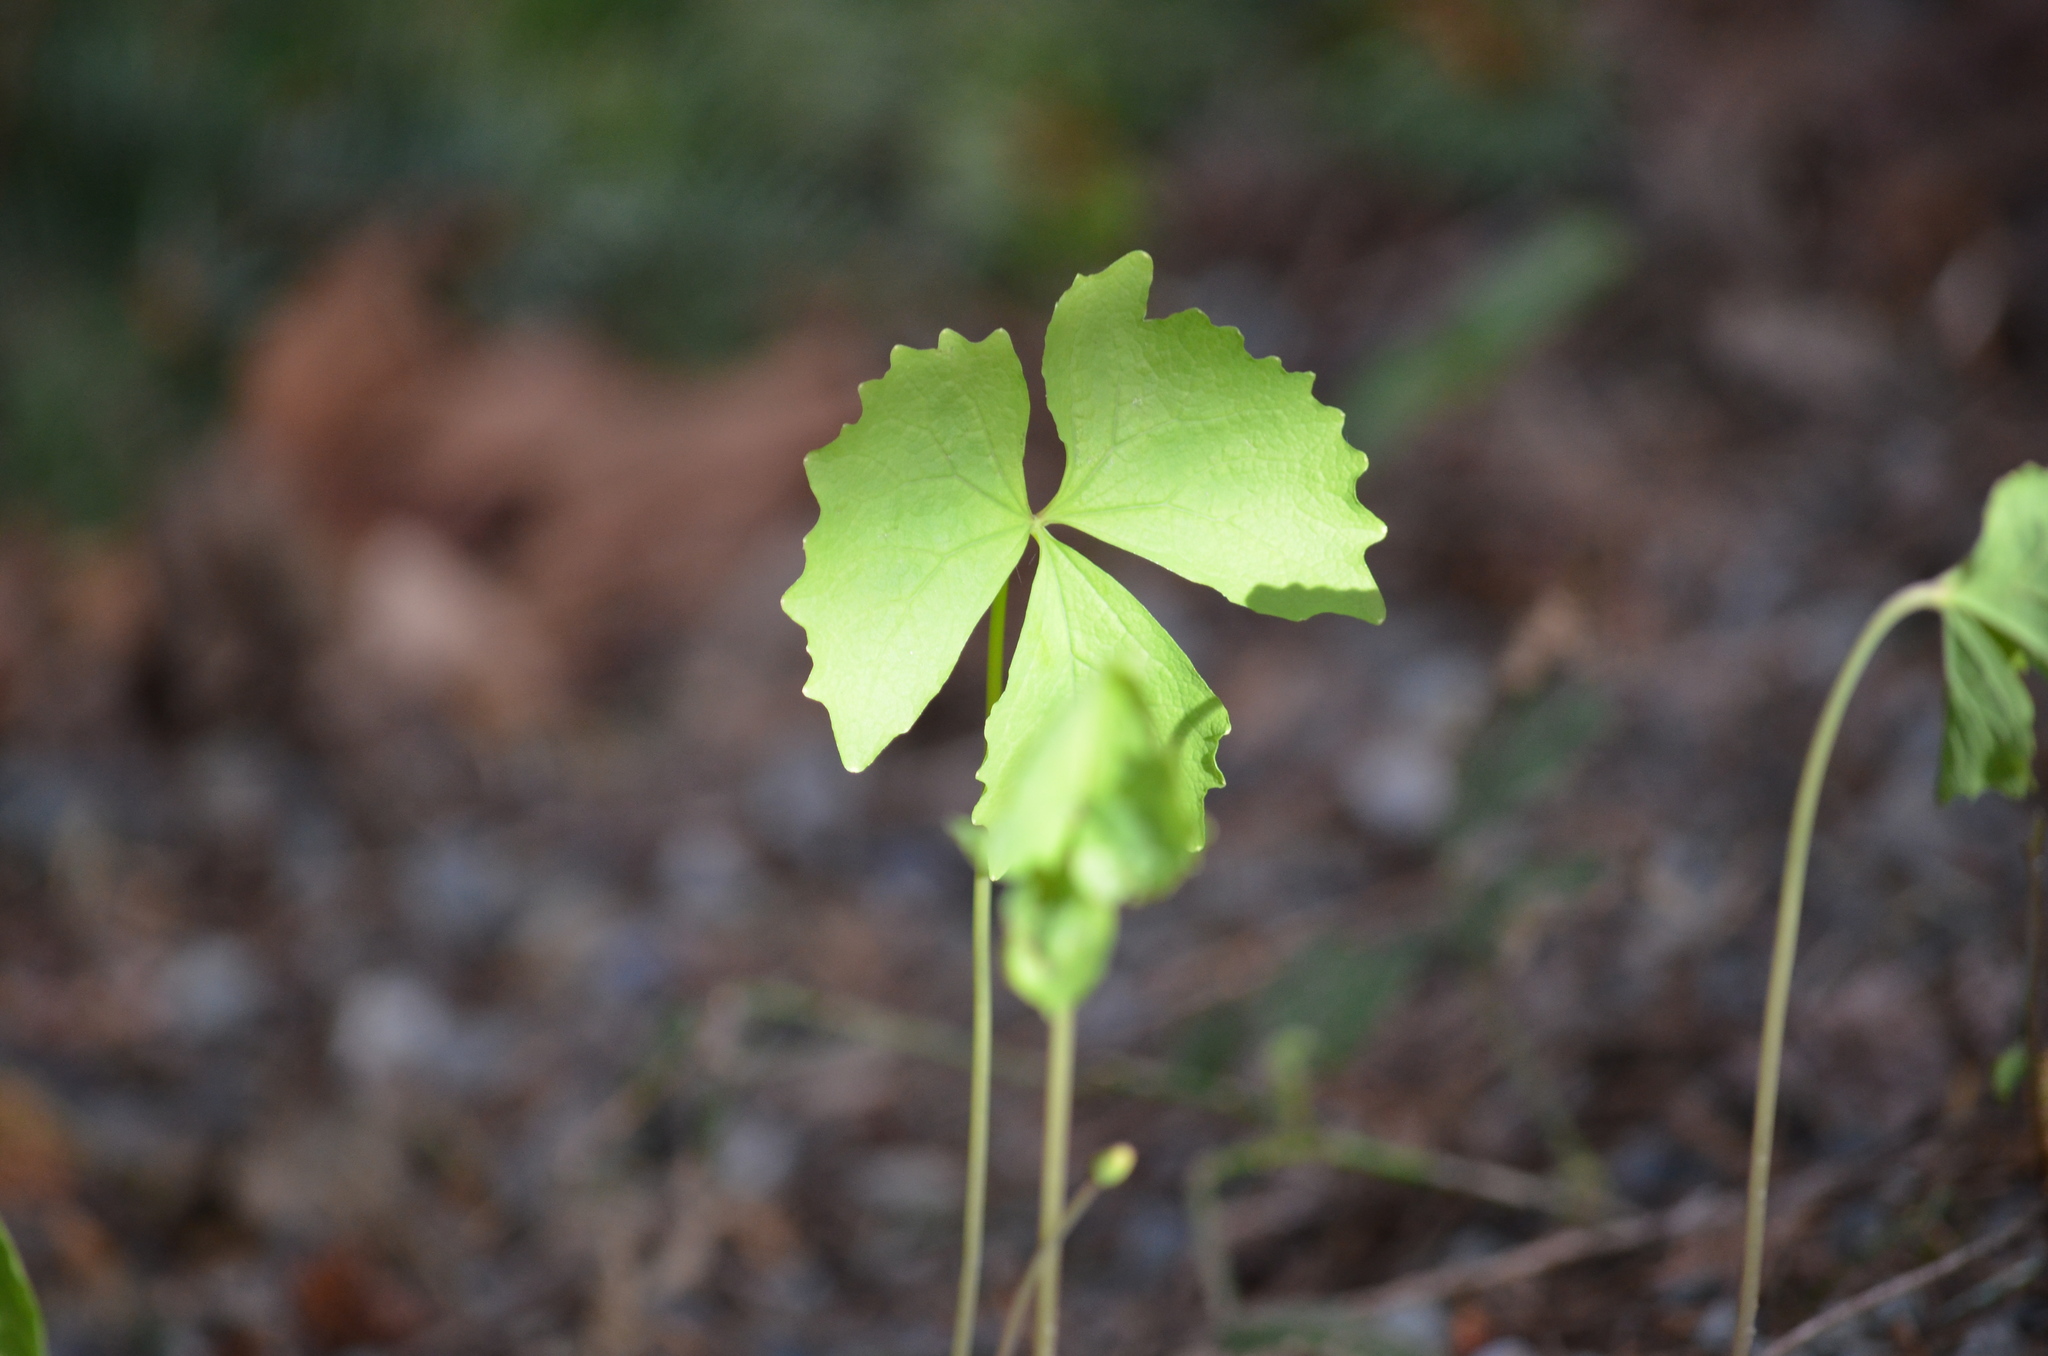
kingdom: Plantae
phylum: Tracheophyta
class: Magnoliopsida
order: Ranunculales
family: Berberidaceae
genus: Achlys
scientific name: Achlys triphylla
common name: Vanilla-leaf
